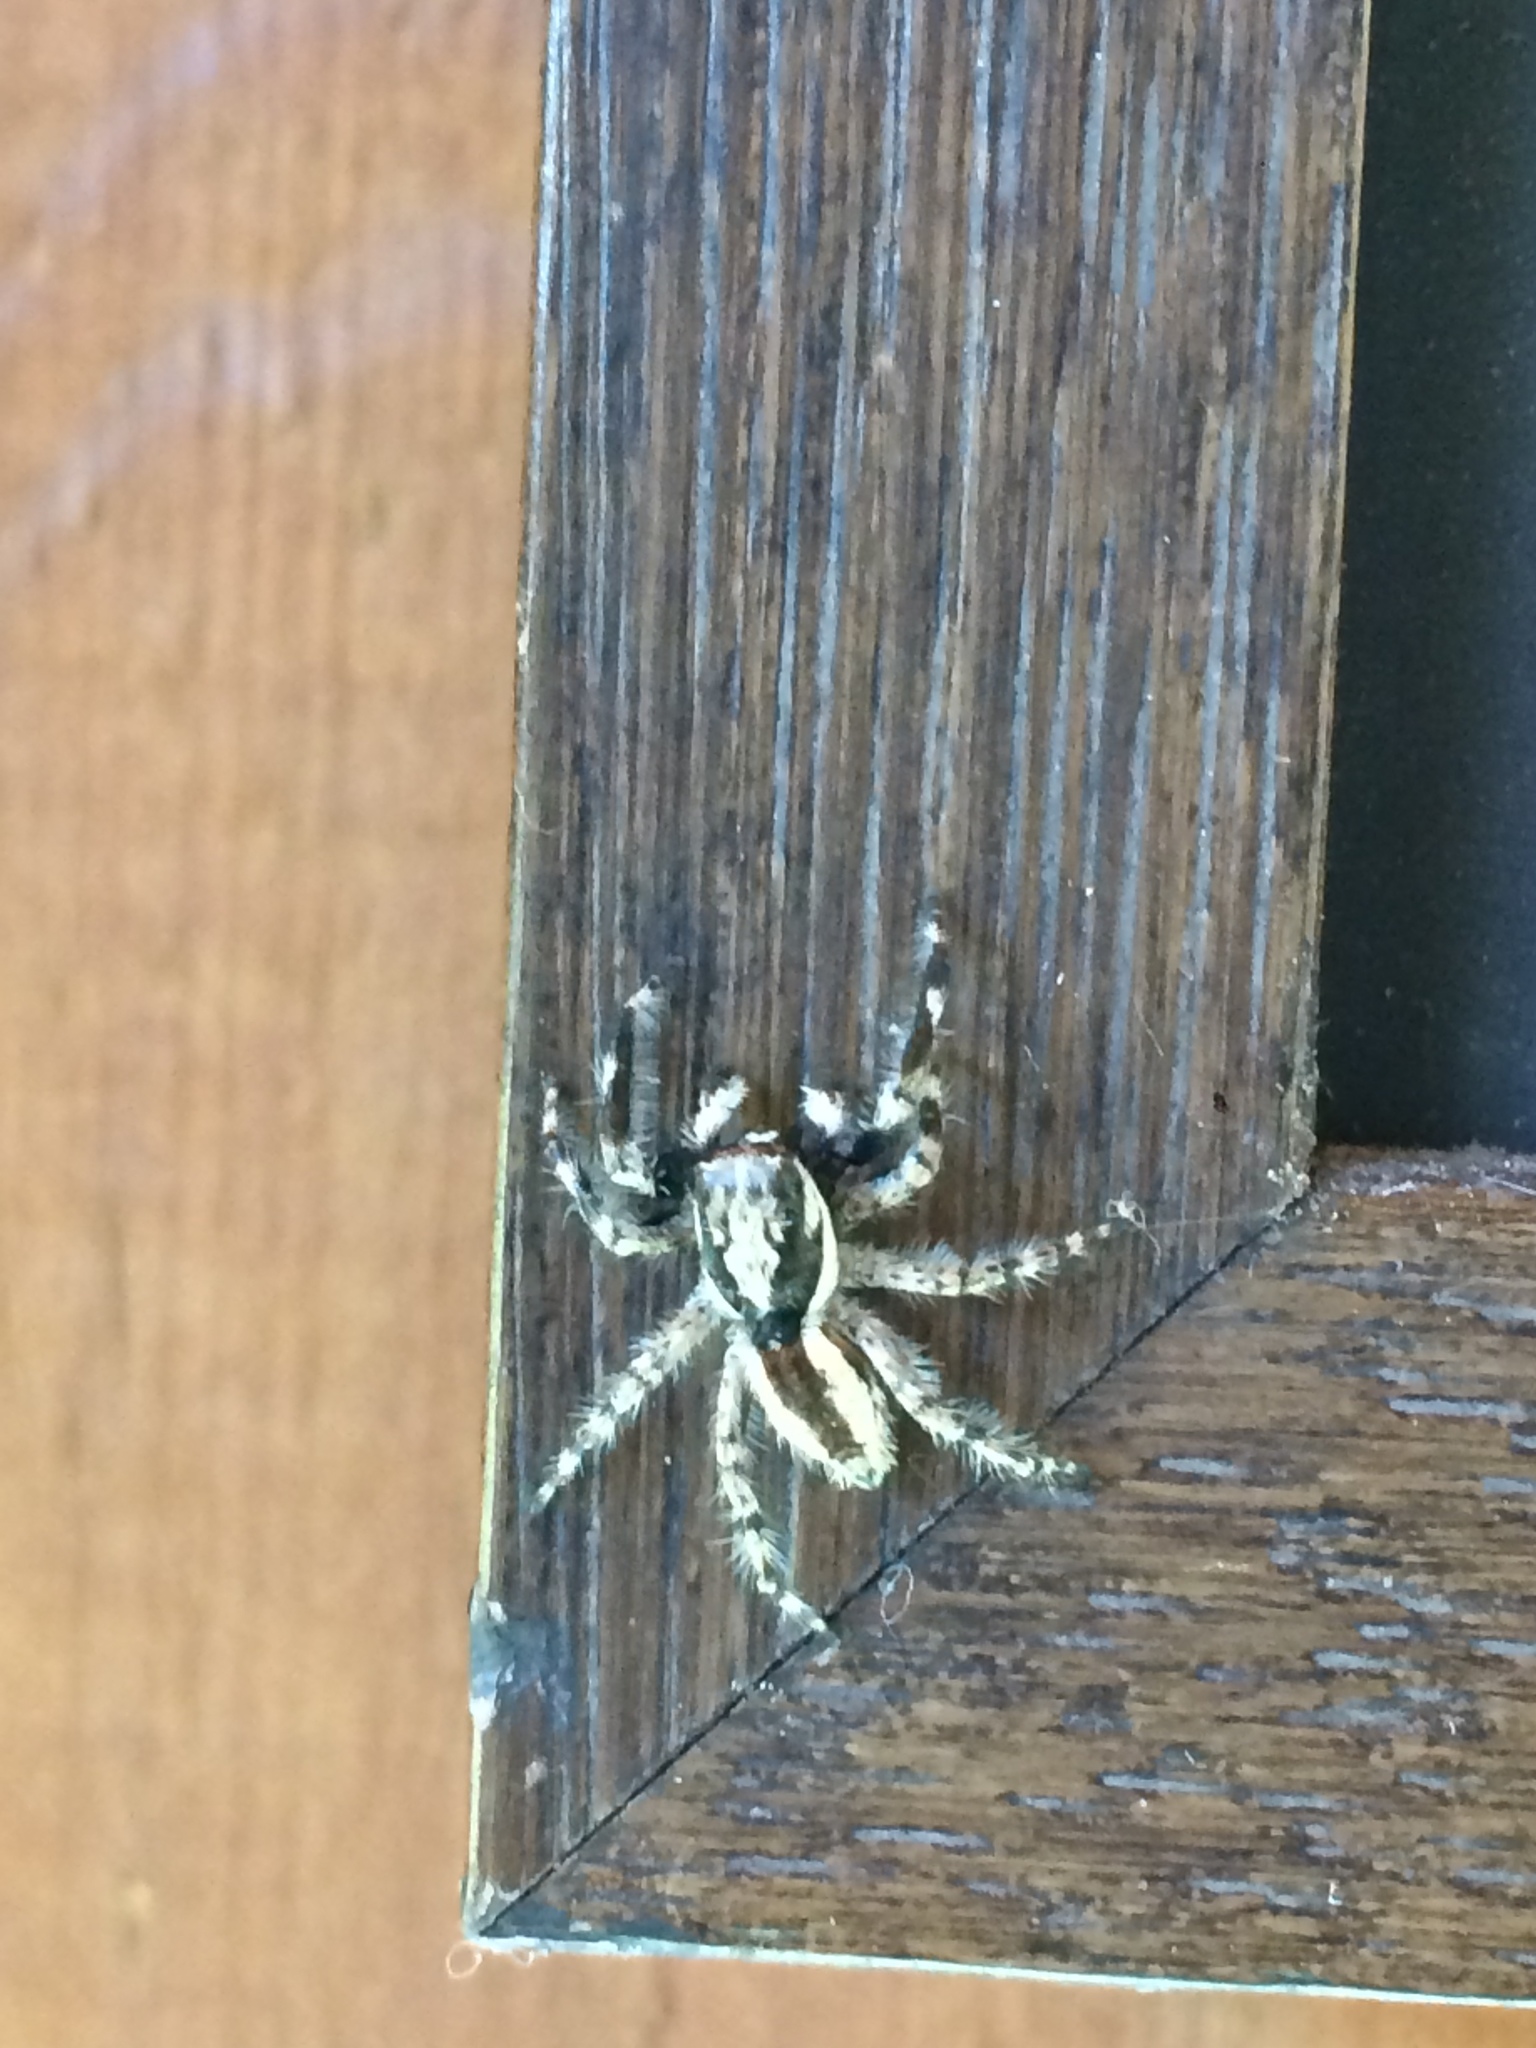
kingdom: Animalia
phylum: Arthropoda
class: Arachnida
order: Araneae
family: Salticidae
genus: Menemerus
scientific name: Menemerus bivittatus
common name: Gray wall jumper
